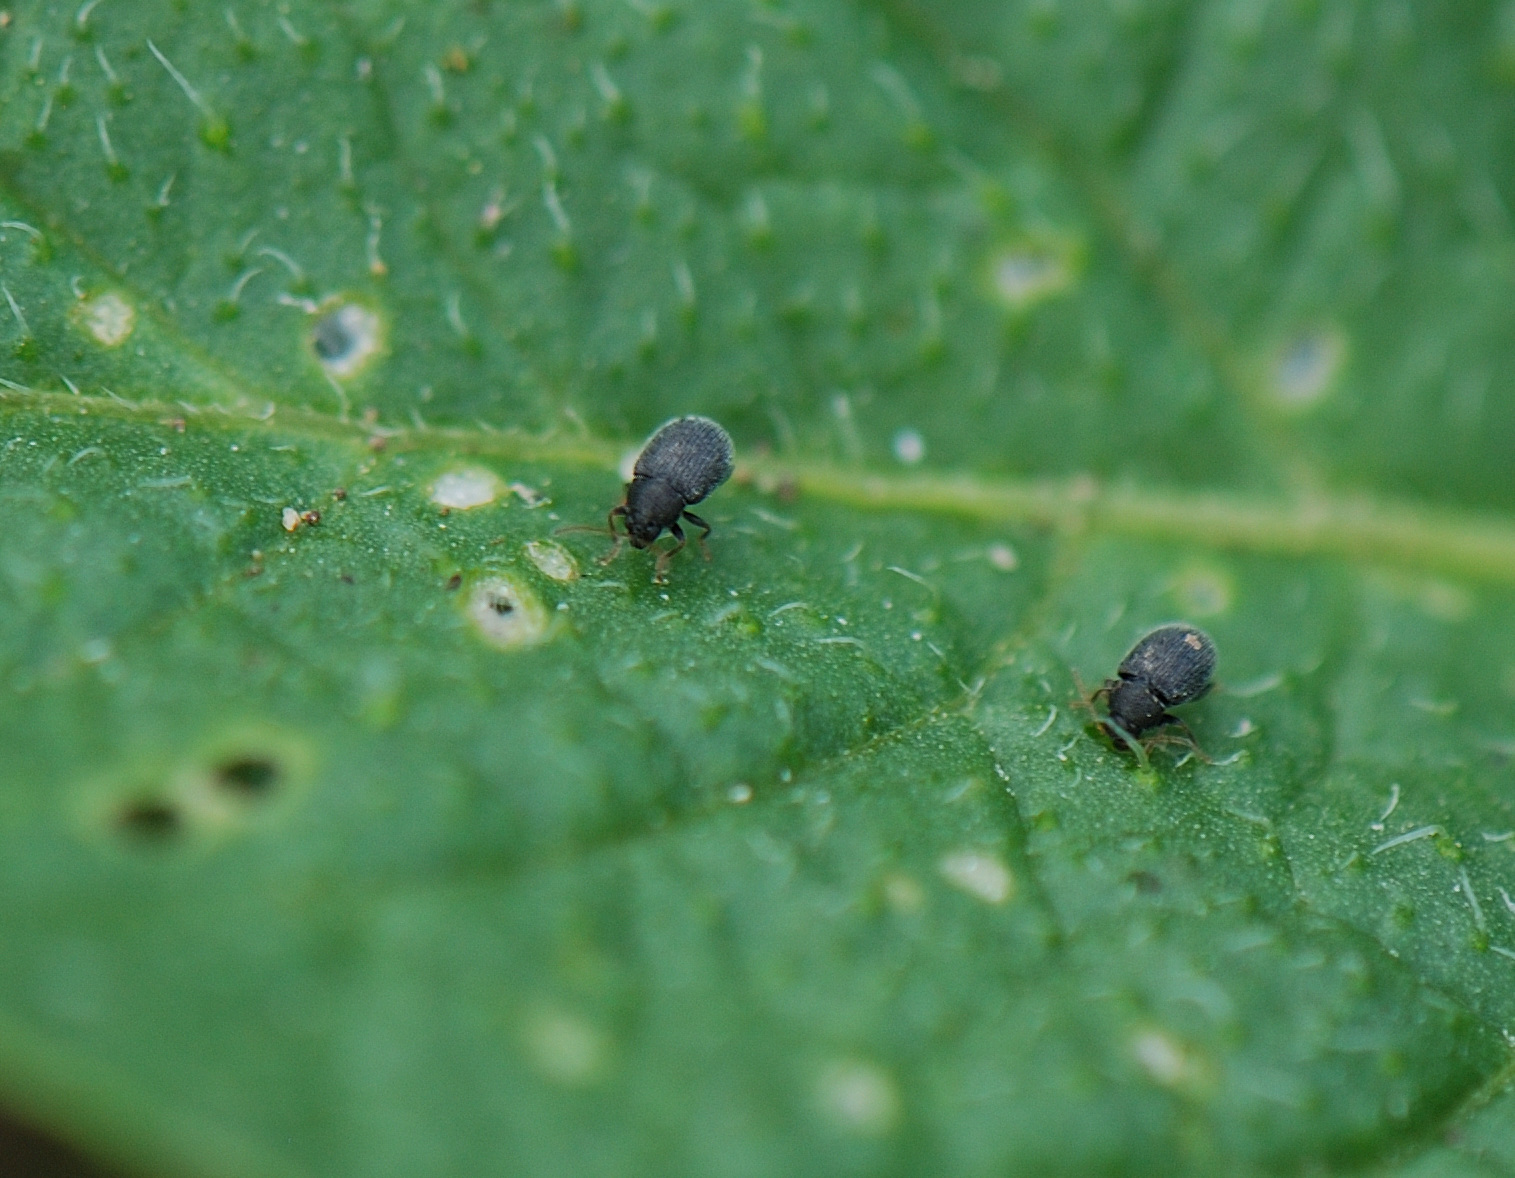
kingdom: Animalia
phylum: Arthropoda
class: Insecta
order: Coleoptera
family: Chrysomelidae
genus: Epitrix
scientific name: Epitrix fuscula
